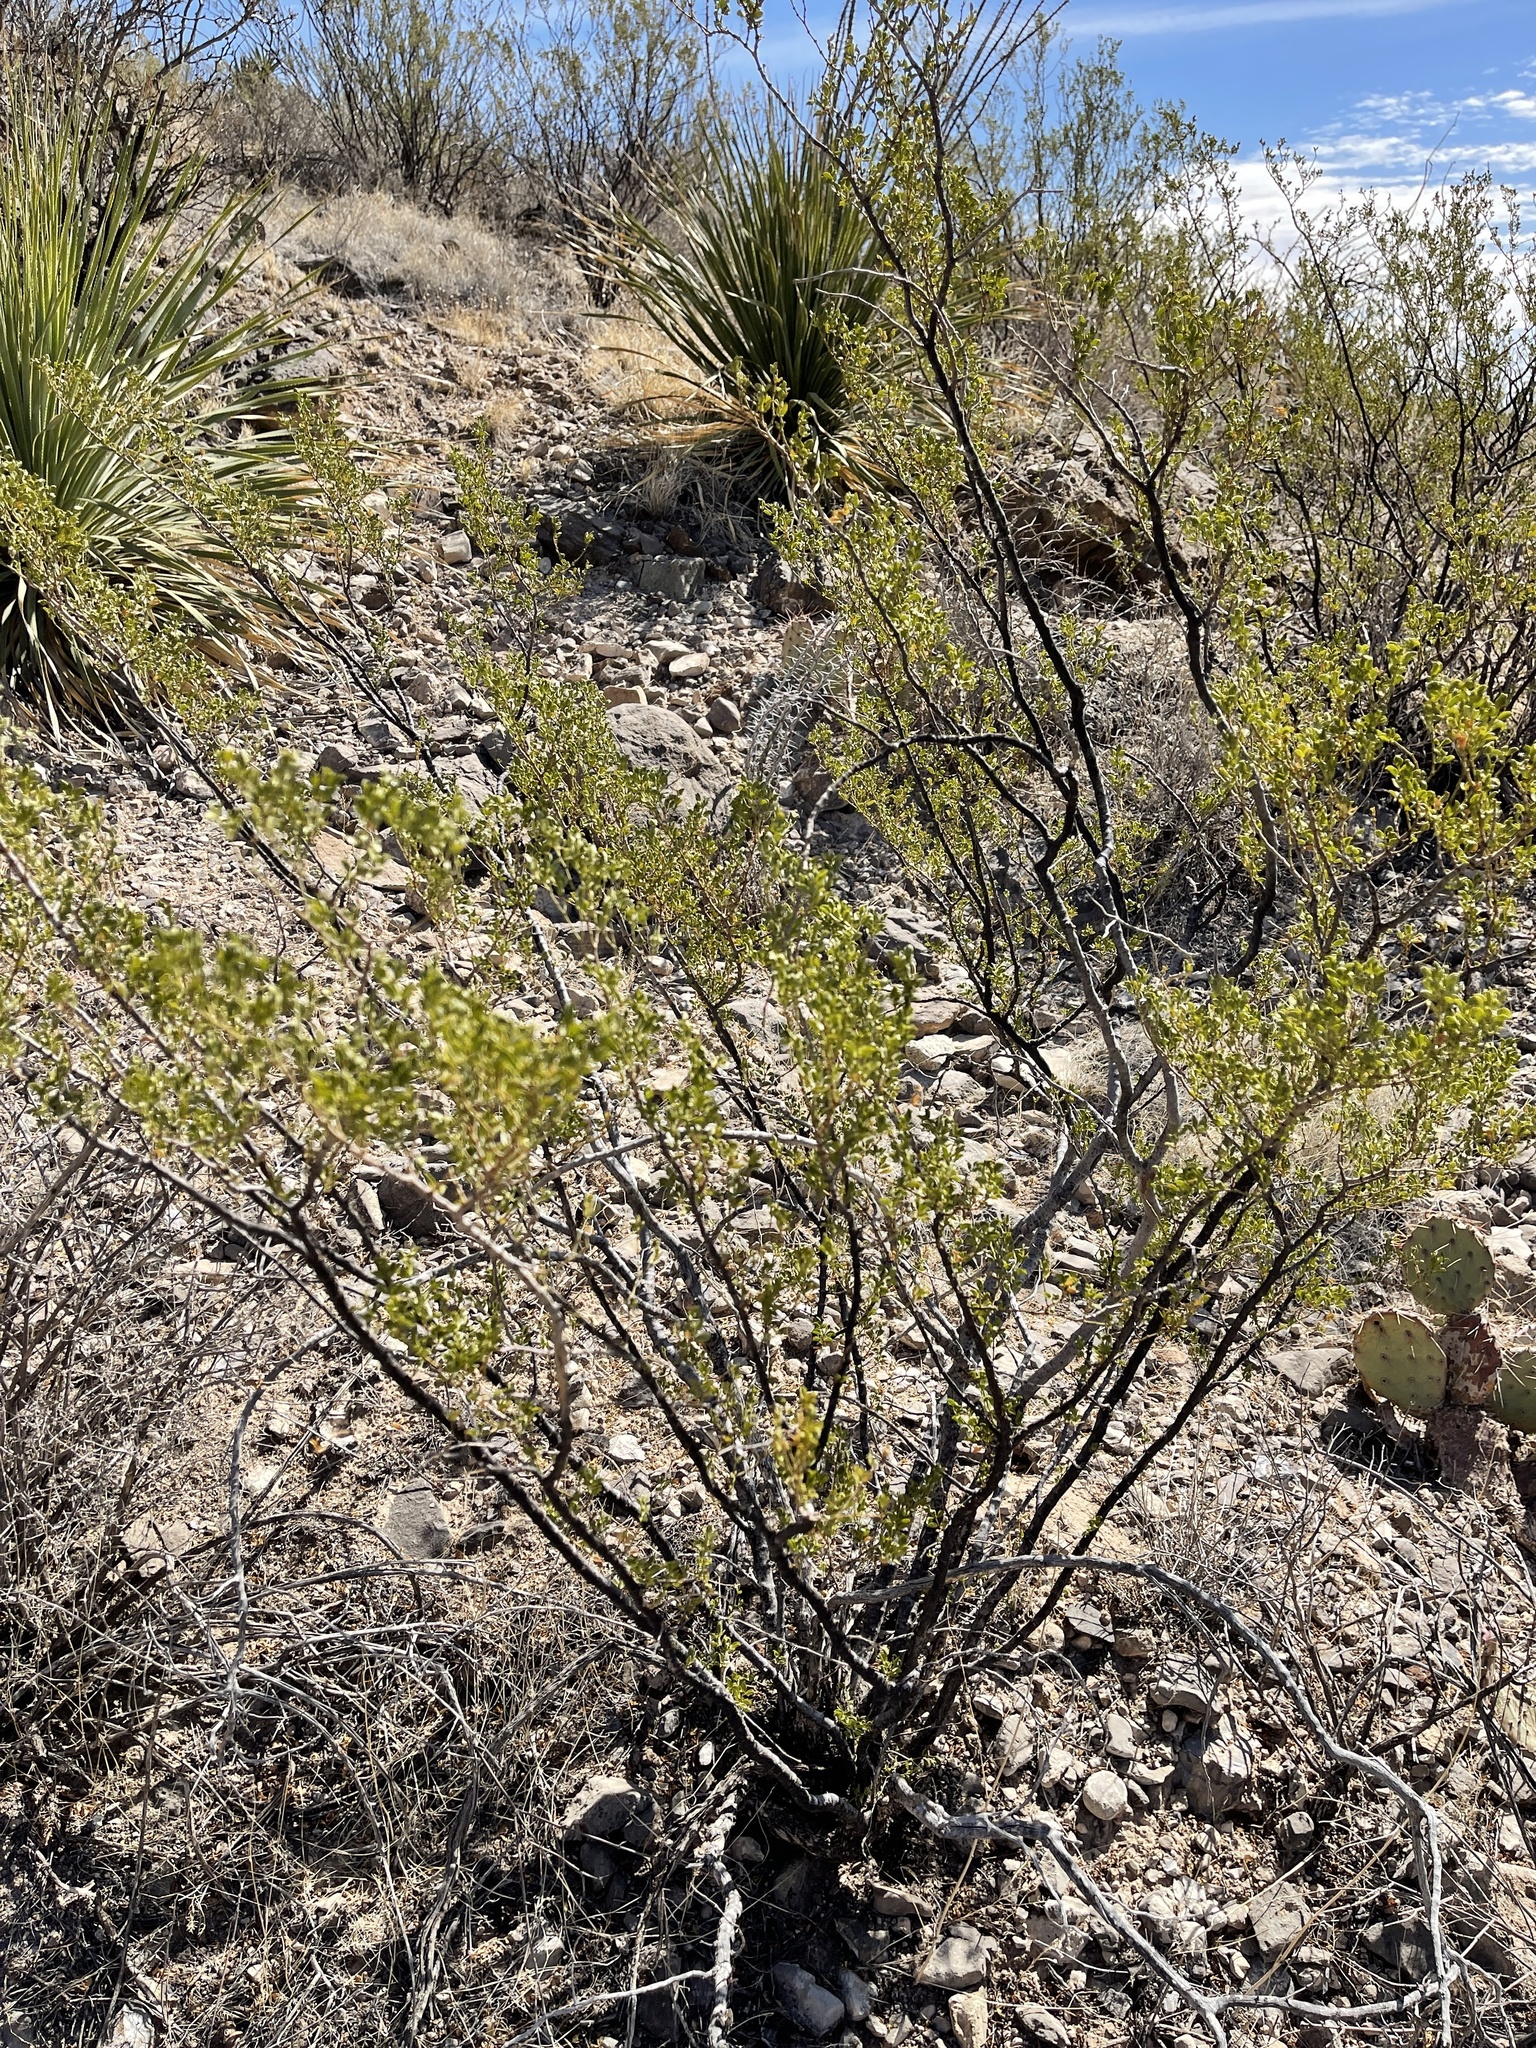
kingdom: Plantae
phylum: Tracheophyta
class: Magnoliopsida
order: Zygophyllales
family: Zygophyllaceae
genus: Larrea
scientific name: Larrea tridentata
